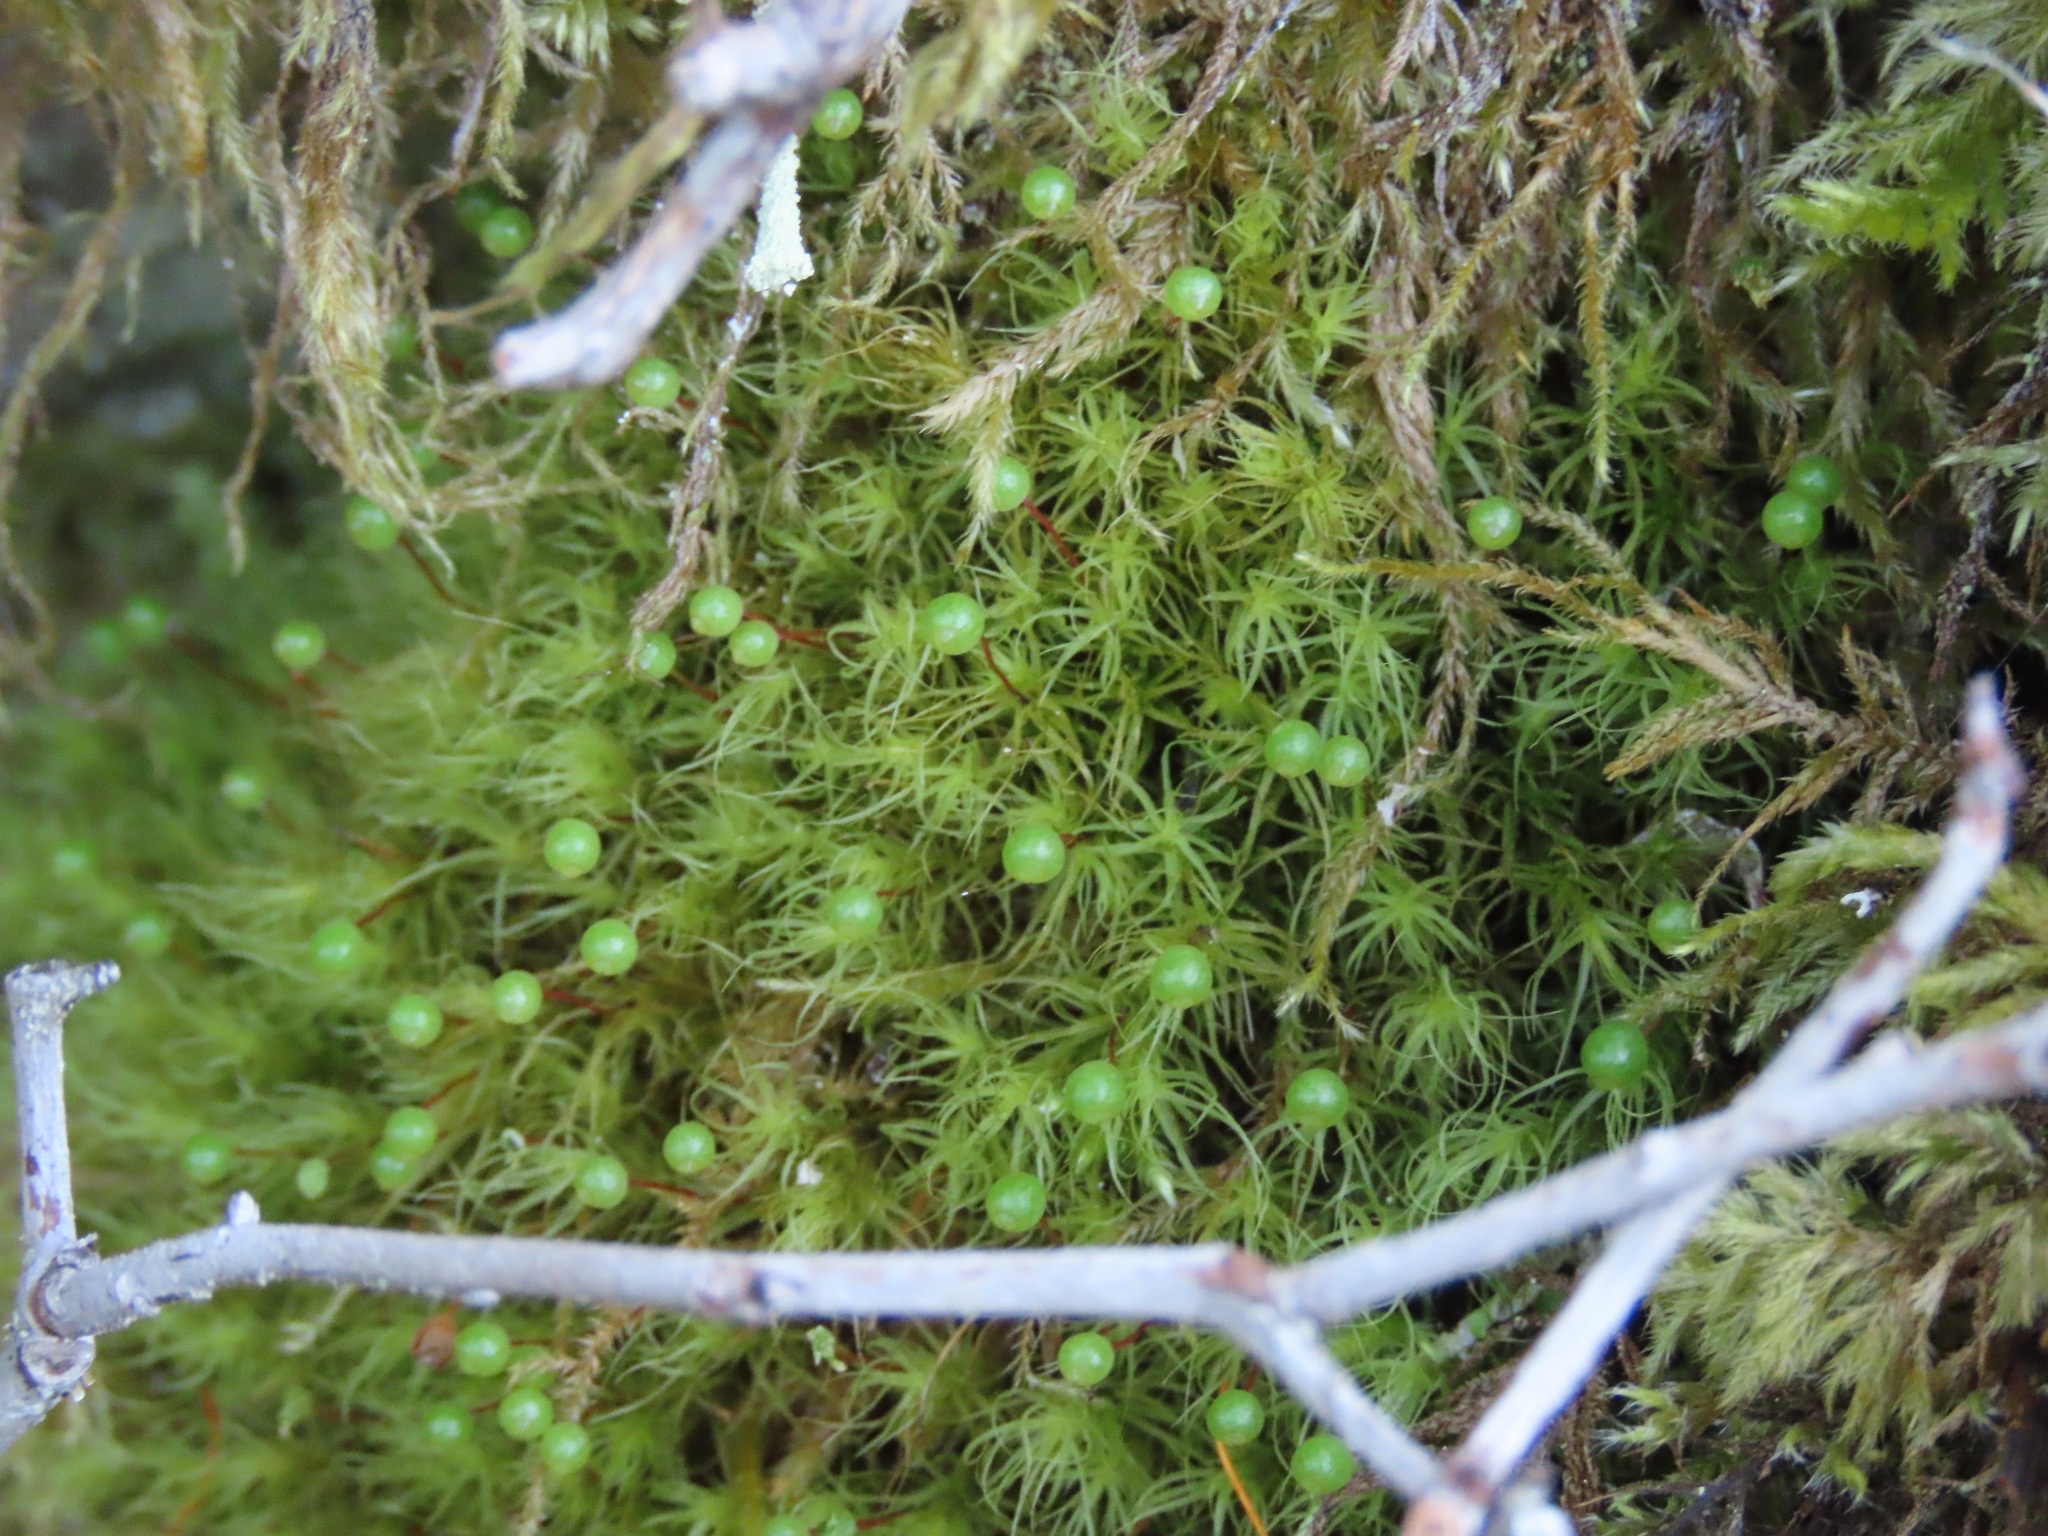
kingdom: Plantae
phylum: Bryophyta
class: Bryopsida
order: Bartramiales
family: Bartramiaceae
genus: Bartramia
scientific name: Bartramia ithyphylla
